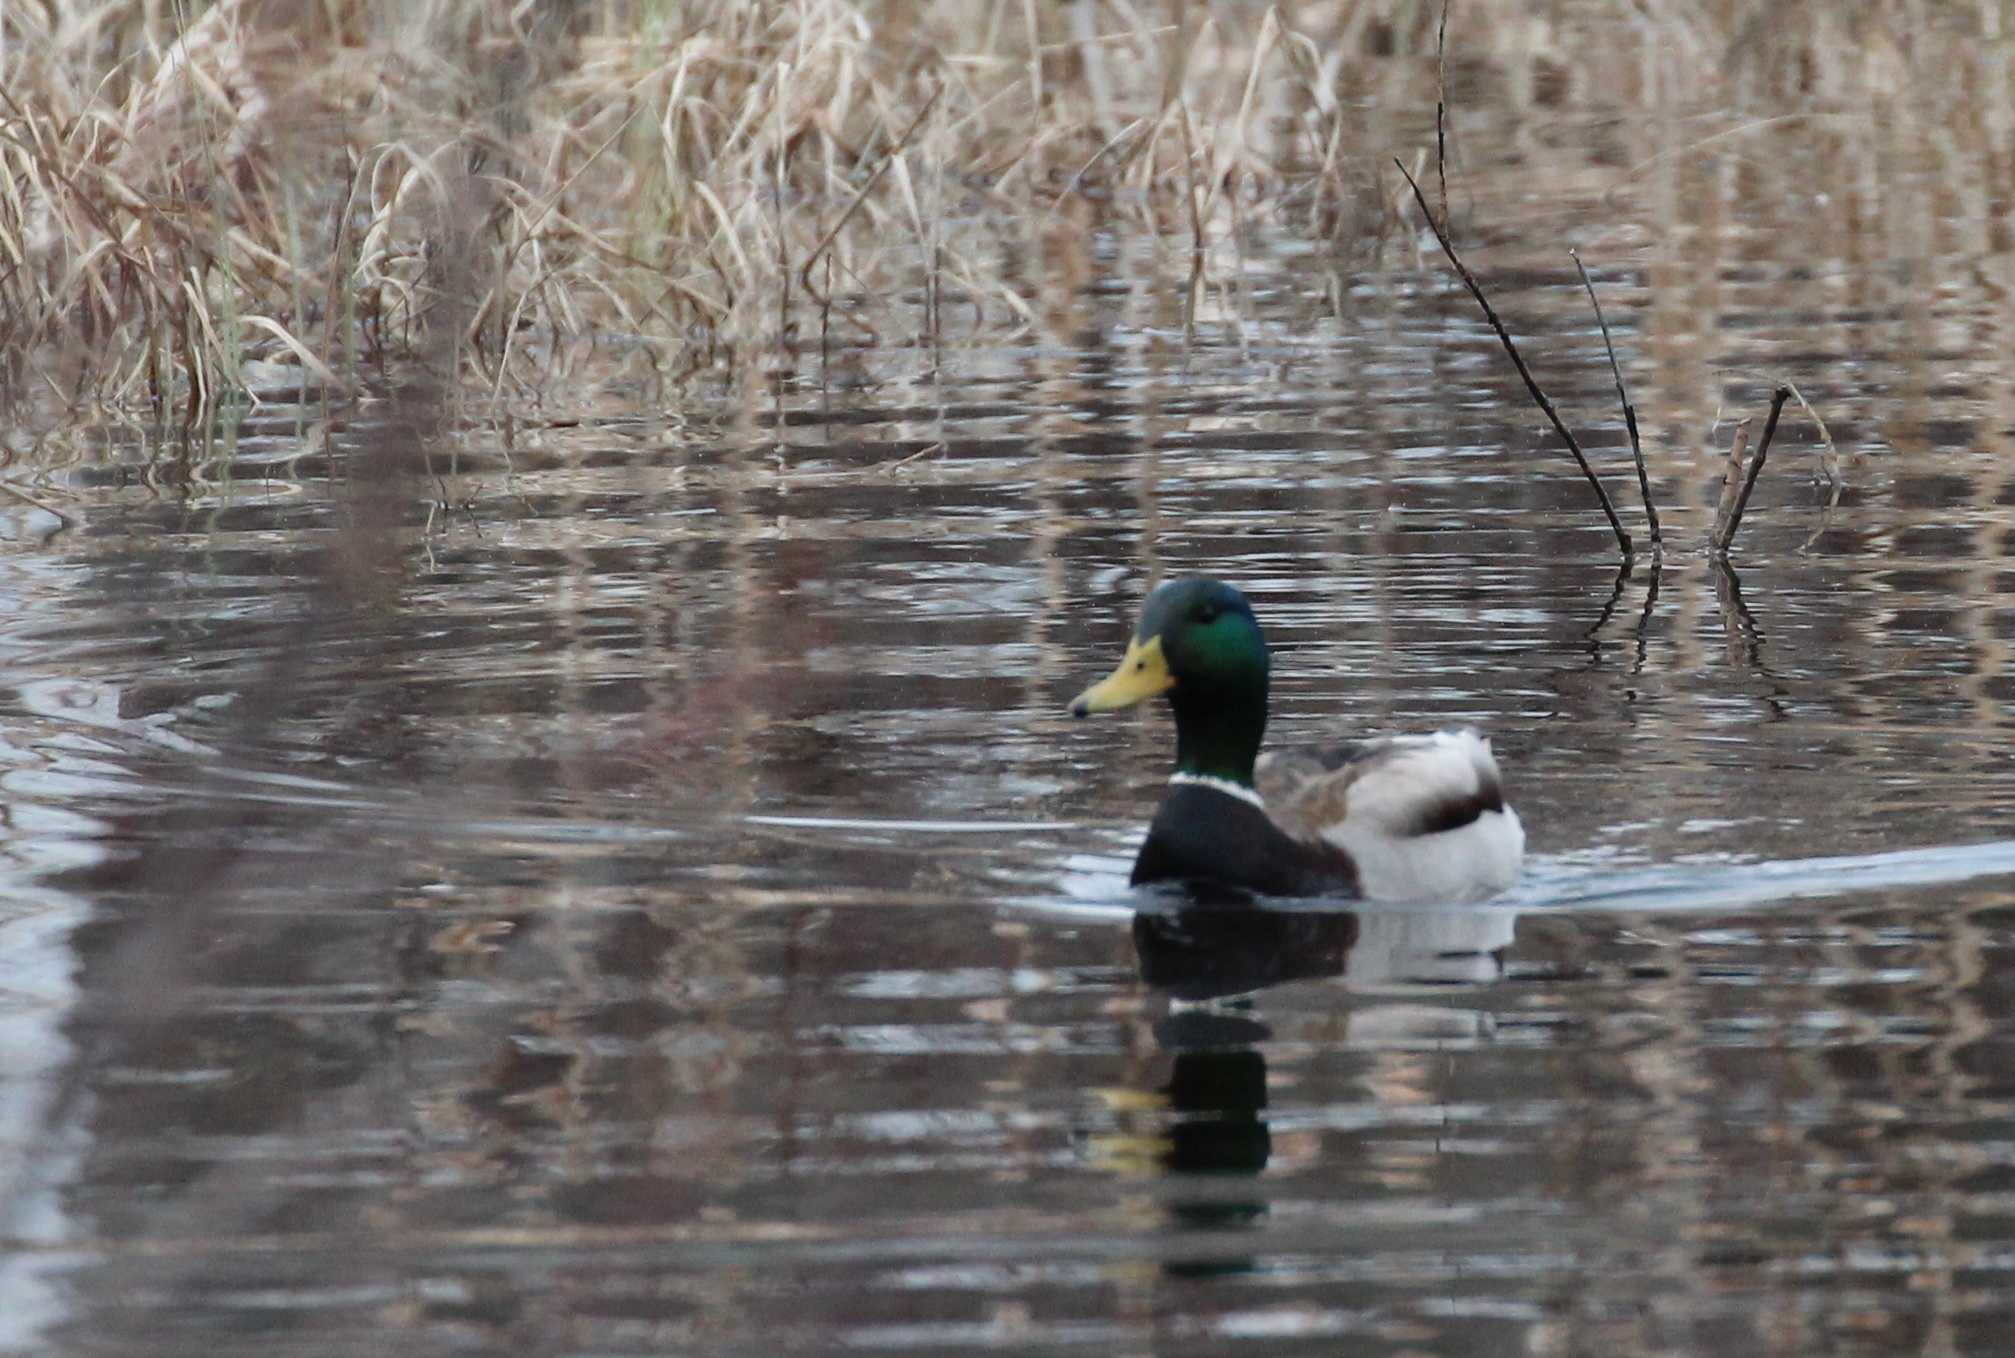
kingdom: Animalia
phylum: Chordata
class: Aves
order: Anseriformes
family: Anatidae
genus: Anas
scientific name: Anas platyrhynchos
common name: Mallard
